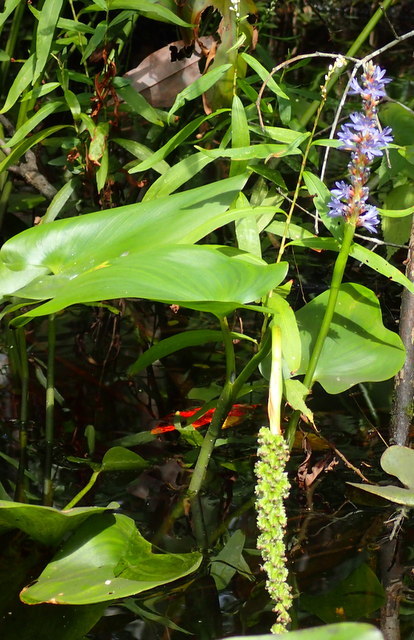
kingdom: Plantae
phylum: Tracheophyta
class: Liliopsida
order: Commelinales
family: Pontederiaceae
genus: Pontederia
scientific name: Pontederia cordata
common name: Pickerelweed
